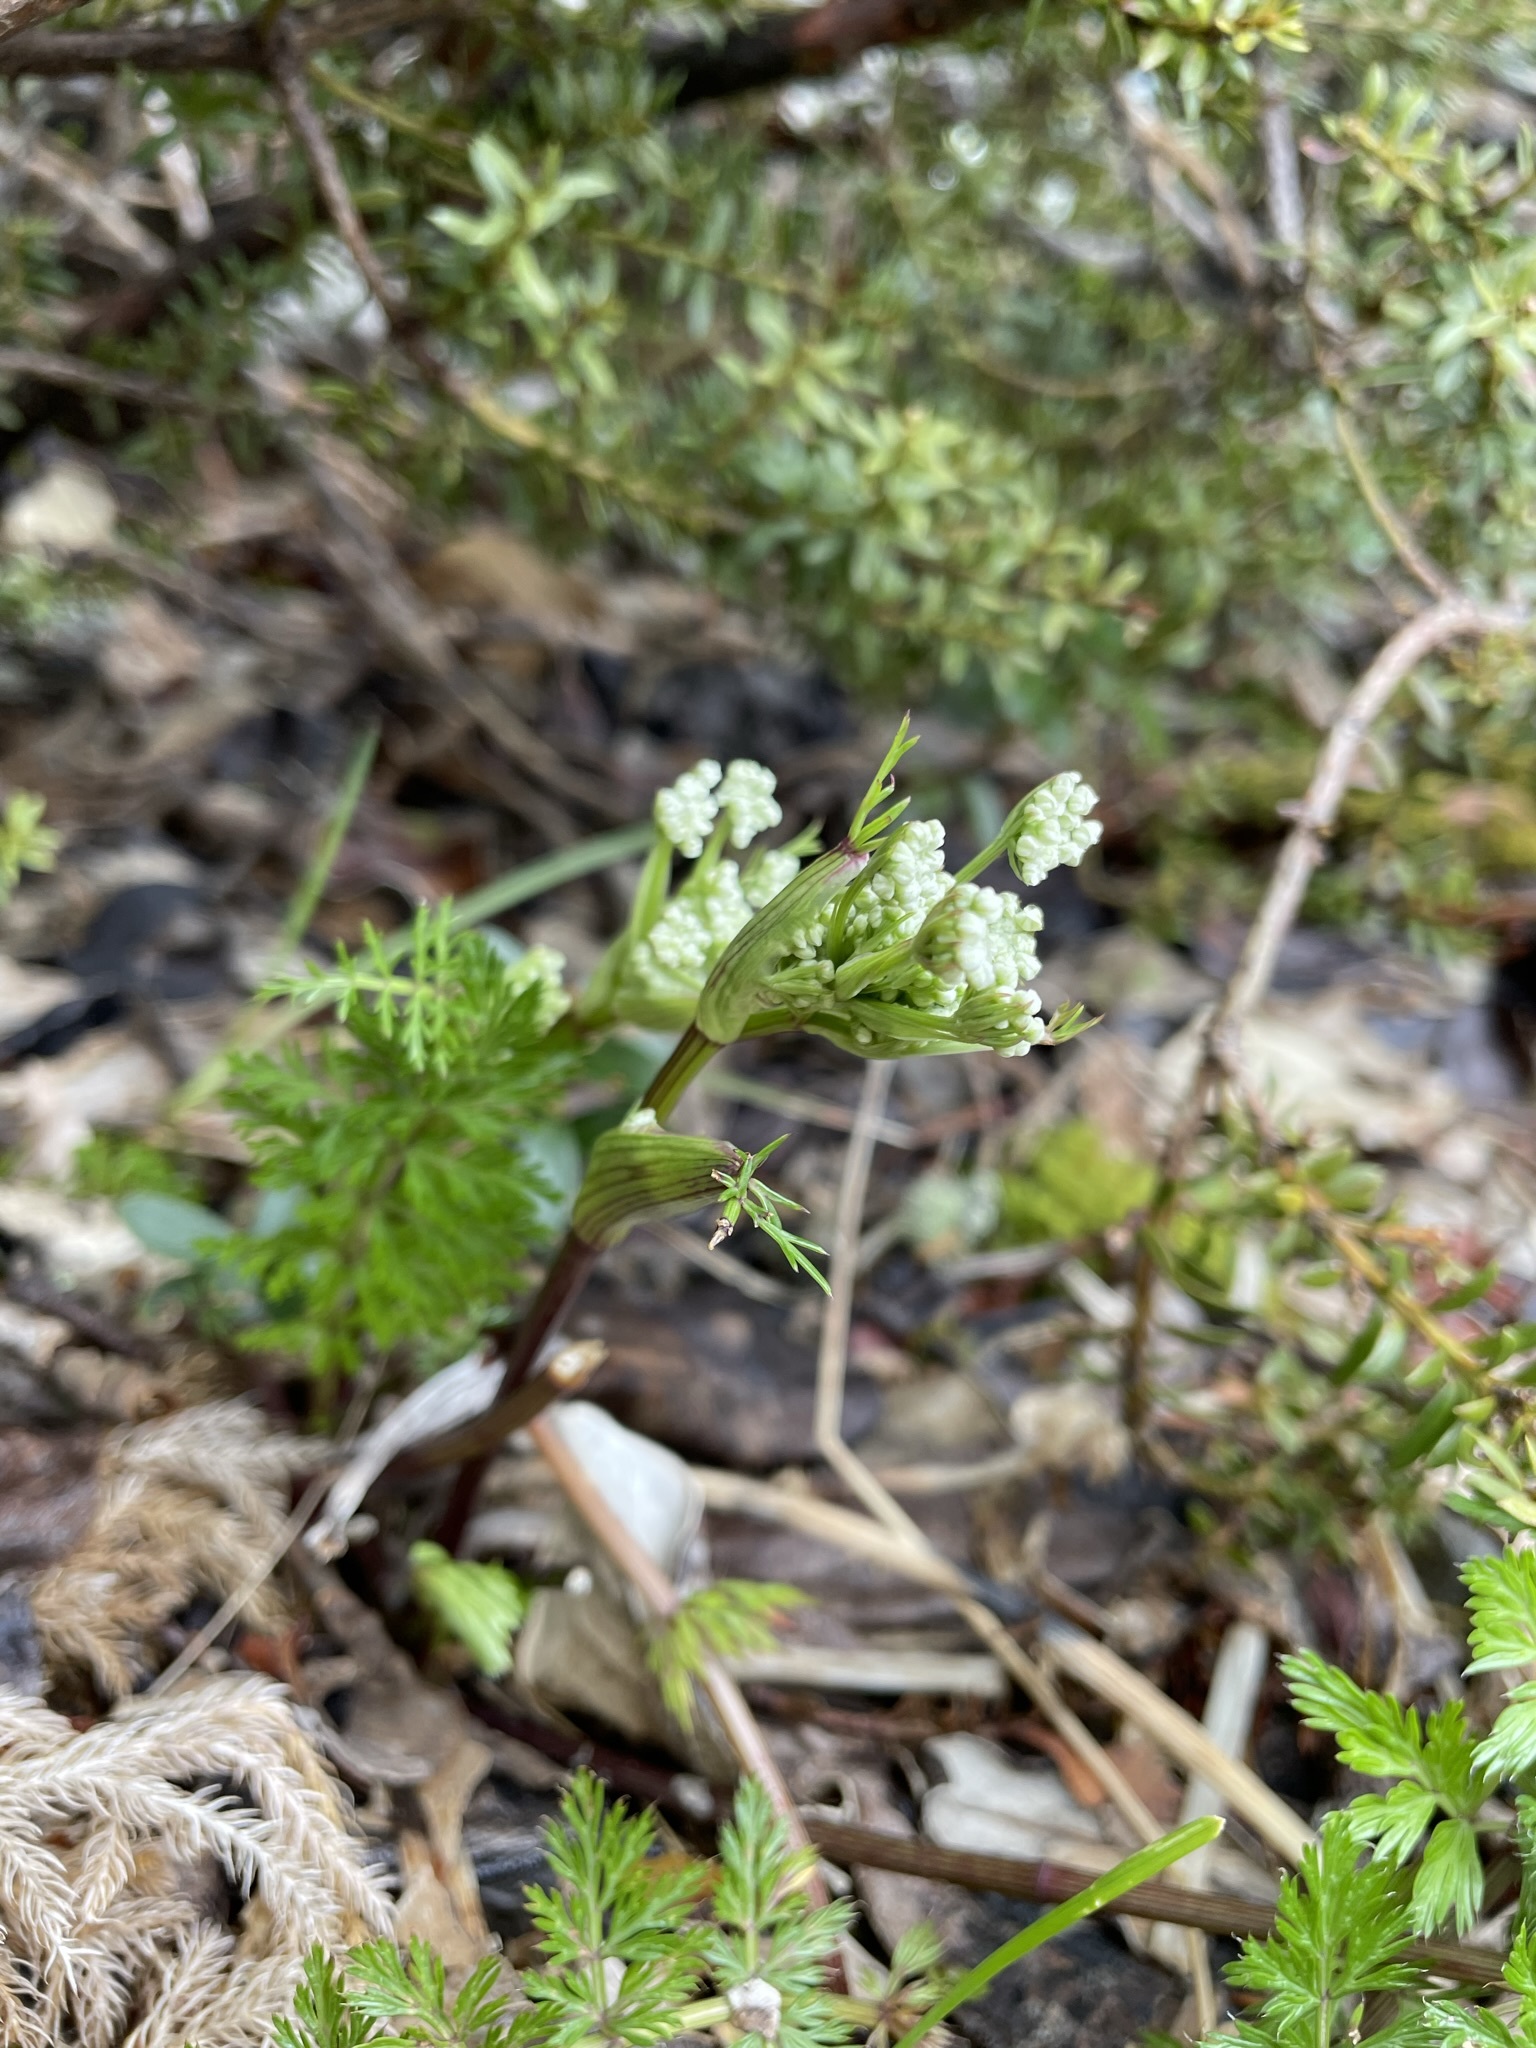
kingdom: Plantae
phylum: Tracheophyta
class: Magnoliopsida
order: Apiales
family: Apiaceae
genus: Anisotome
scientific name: Anisotome haastii
